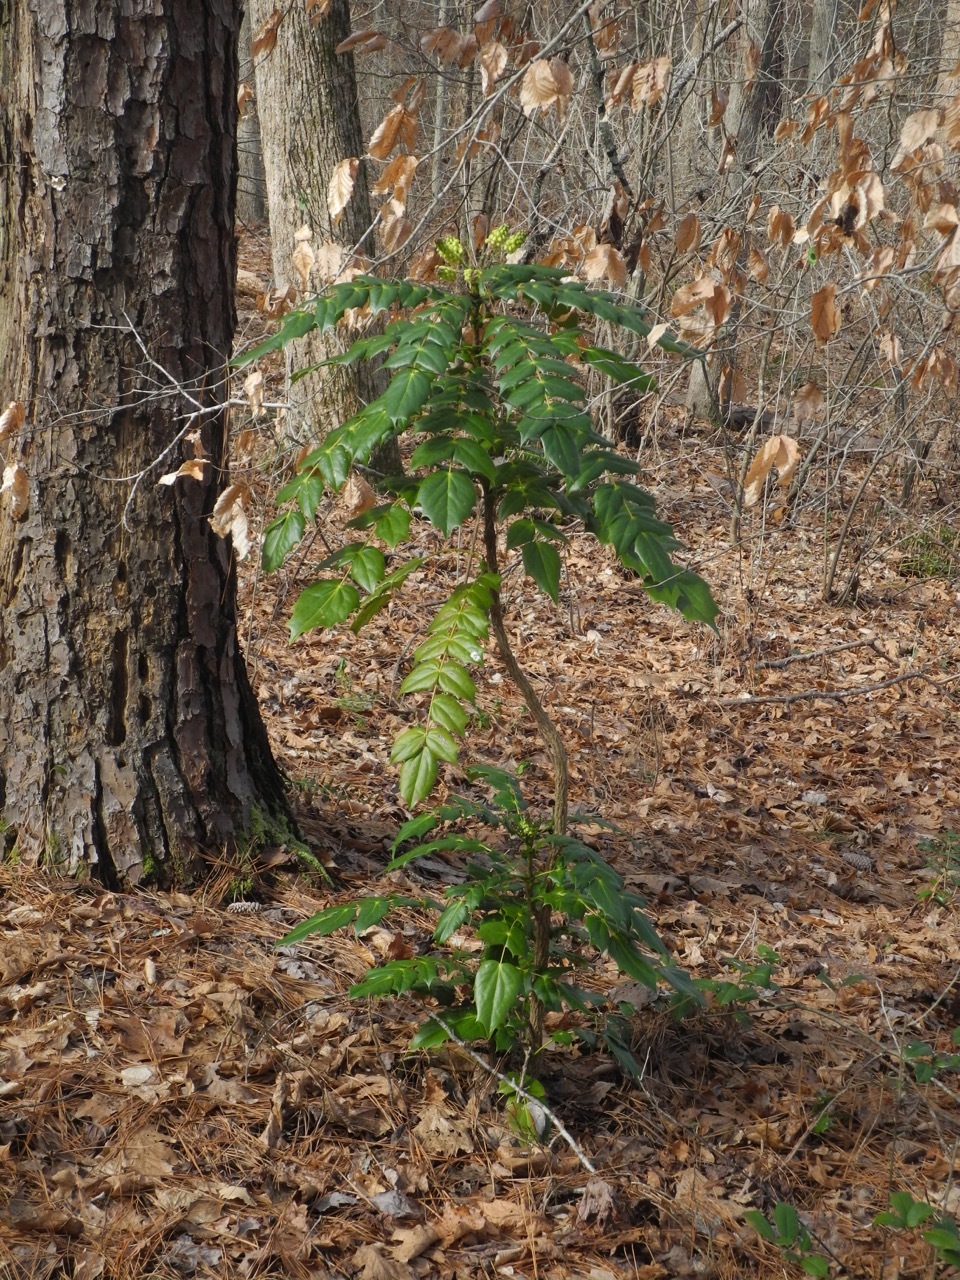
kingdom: Plantae
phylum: Tracheophyta
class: Magnoliopsida
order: Ranunculales
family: Berberidaceae
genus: Mahonia
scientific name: Mahonia bealei
